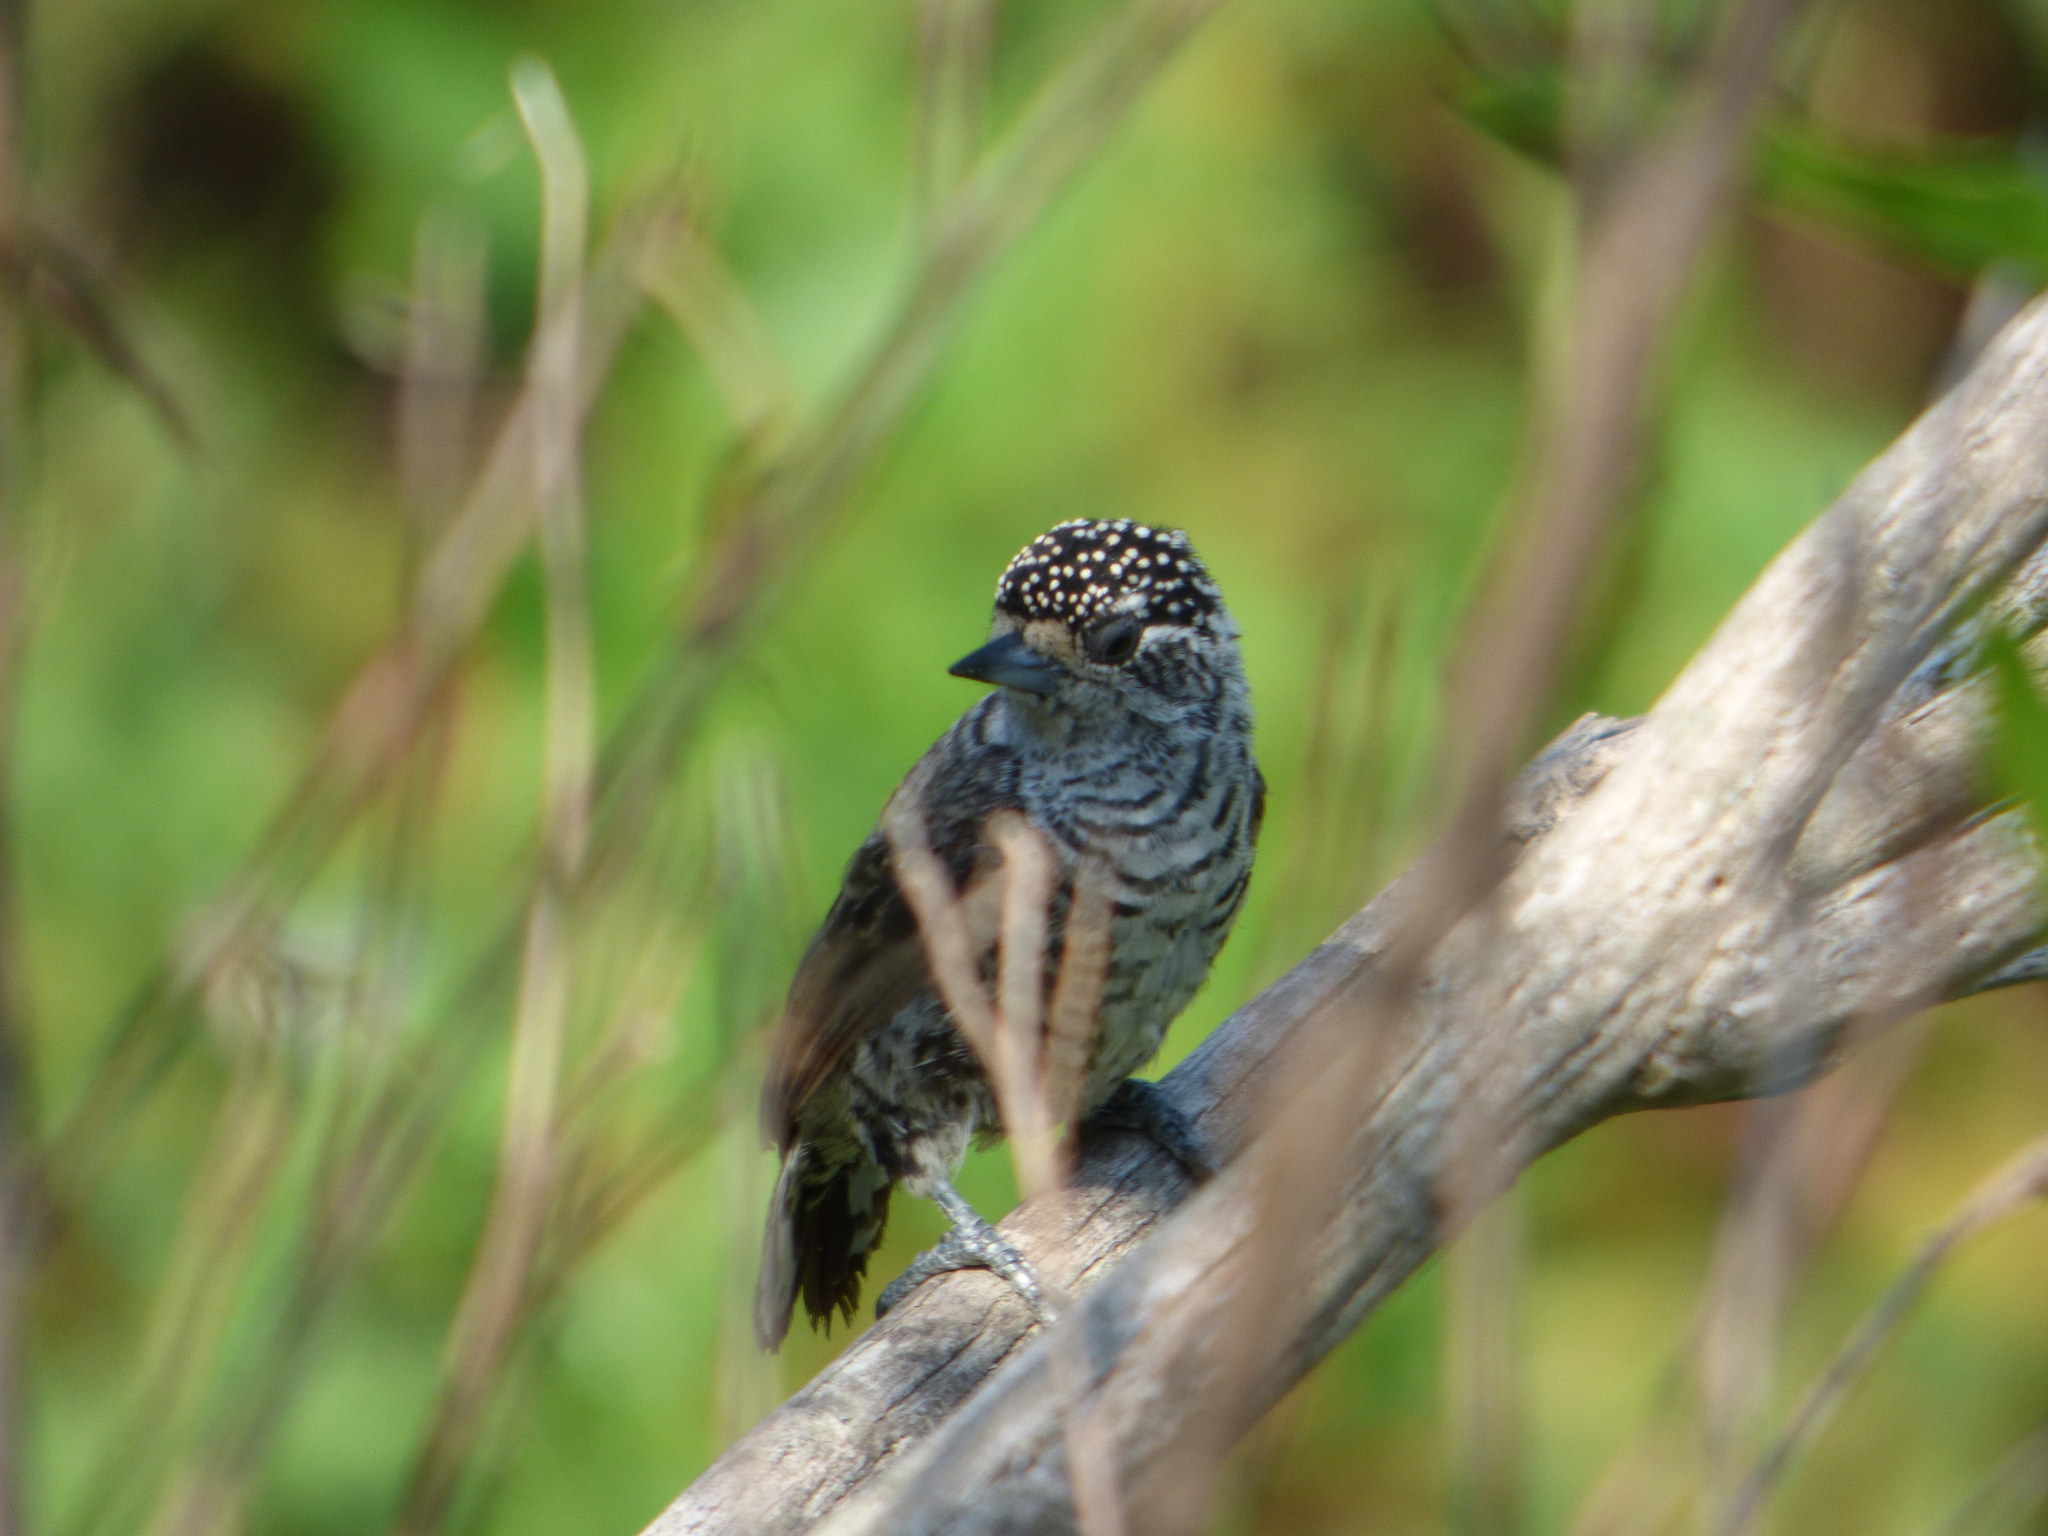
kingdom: Animalia
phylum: Chordata
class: Aves
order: Piciformes
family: Picidae
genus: Picumnus
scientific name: Picumnus cirratus
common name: White-barred piculet
